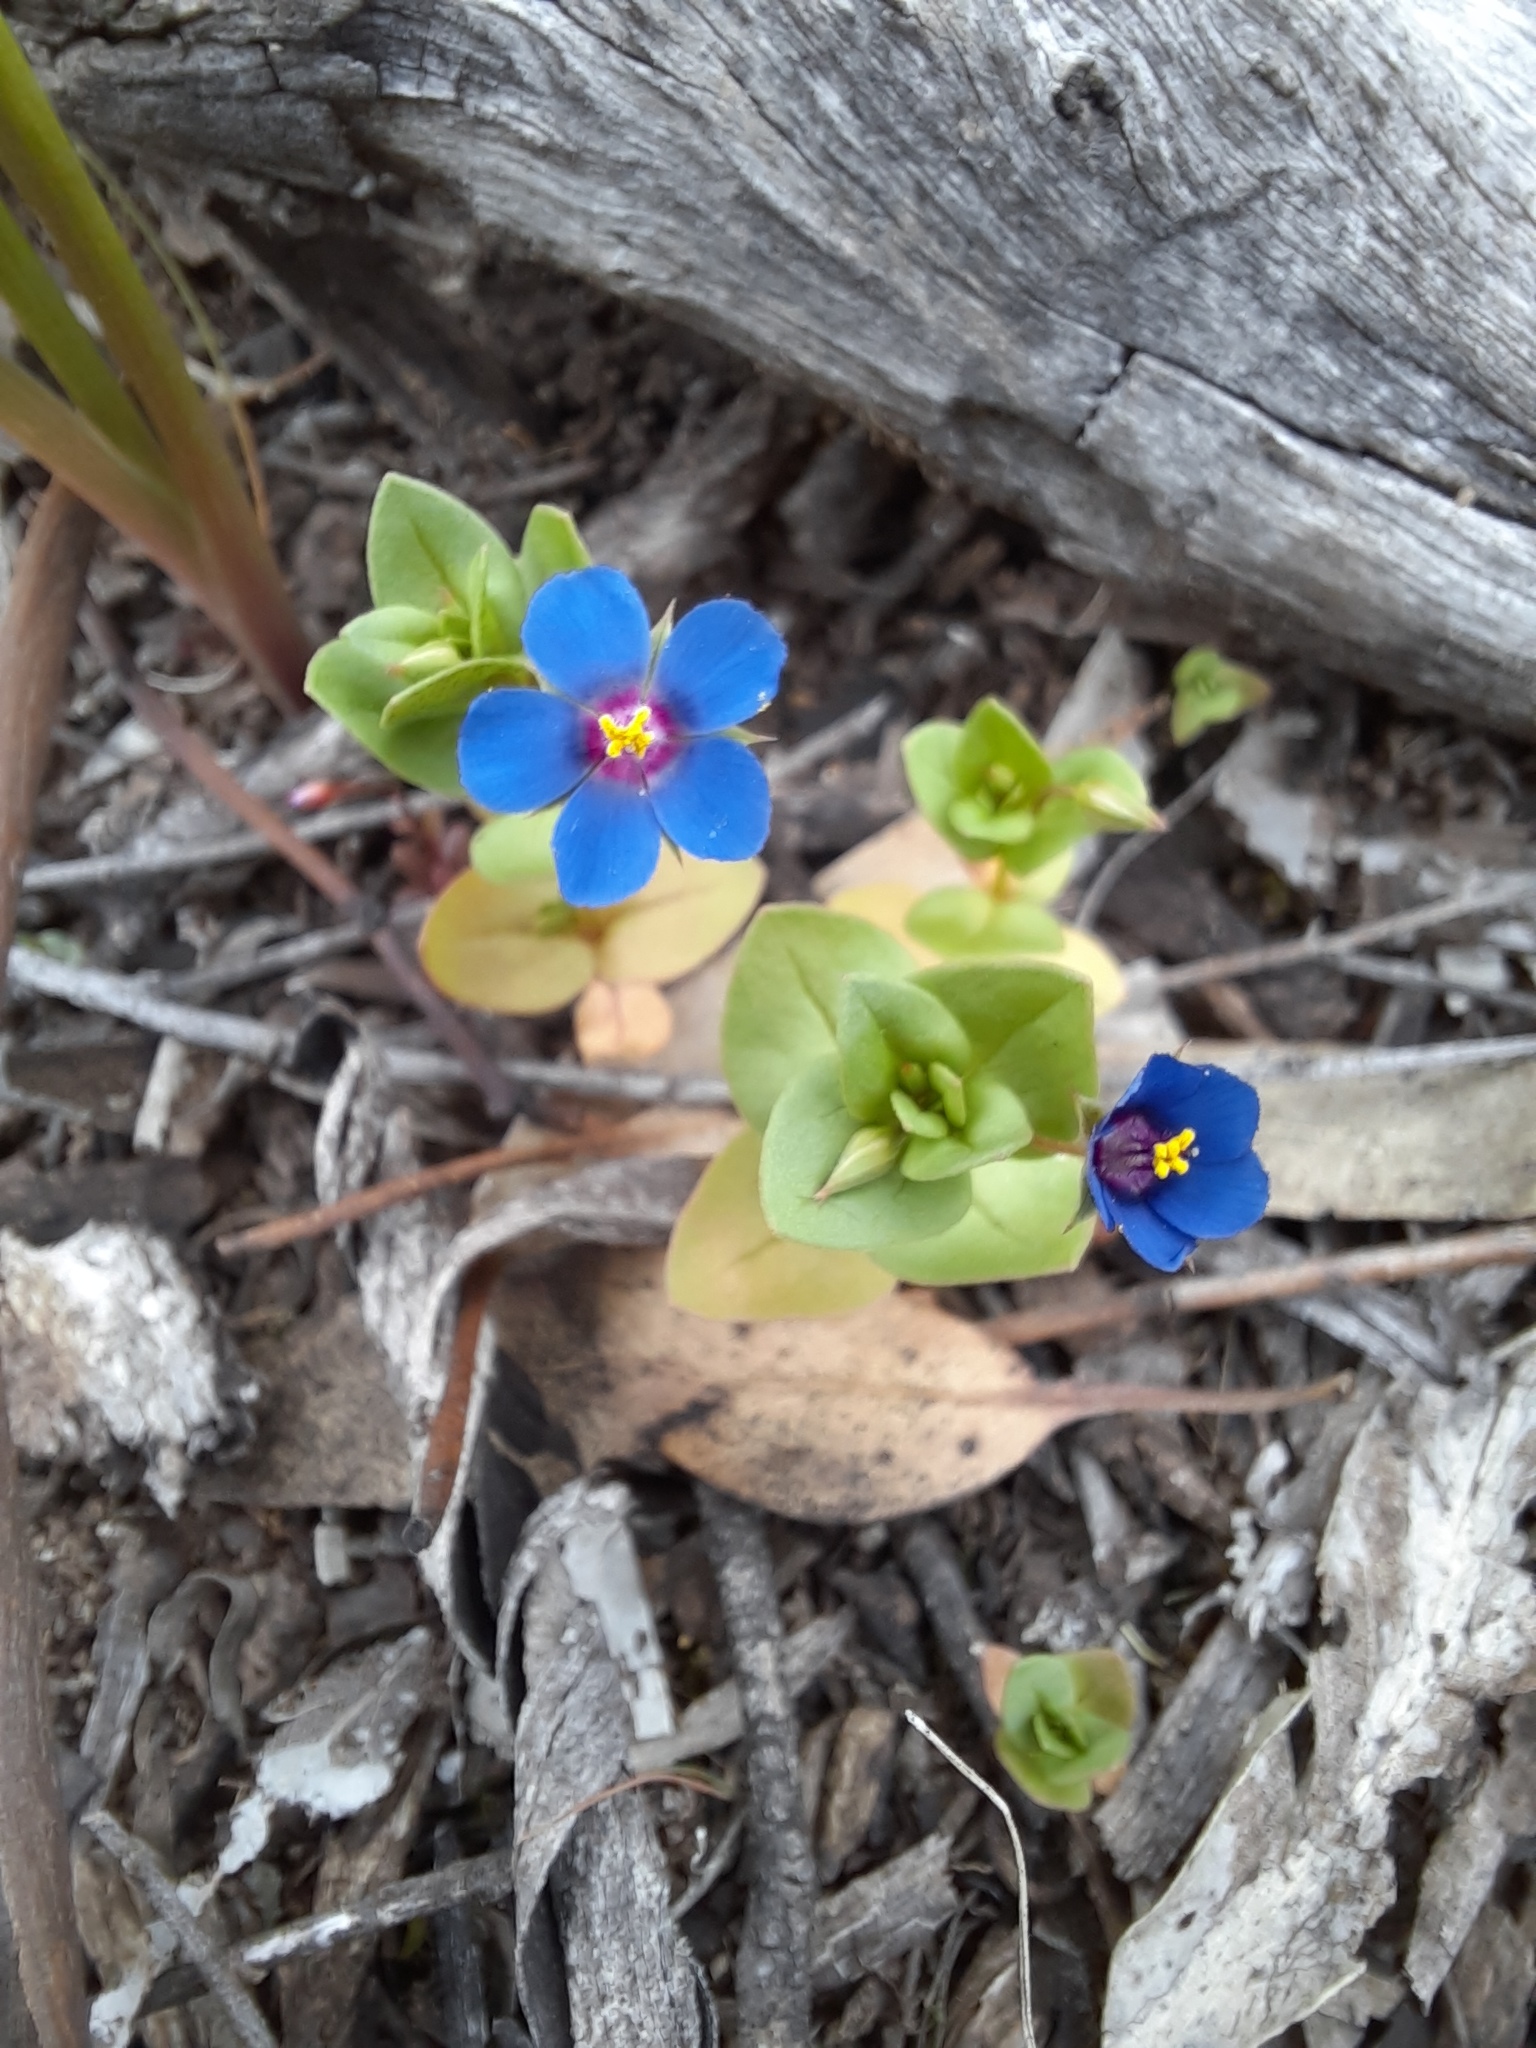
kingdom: Plantae
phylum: Tracheophyta
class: Magnoliopsida
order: Ericales
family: Primulaceae
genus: Lysimachia
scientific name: Lysimachia loeflingii
